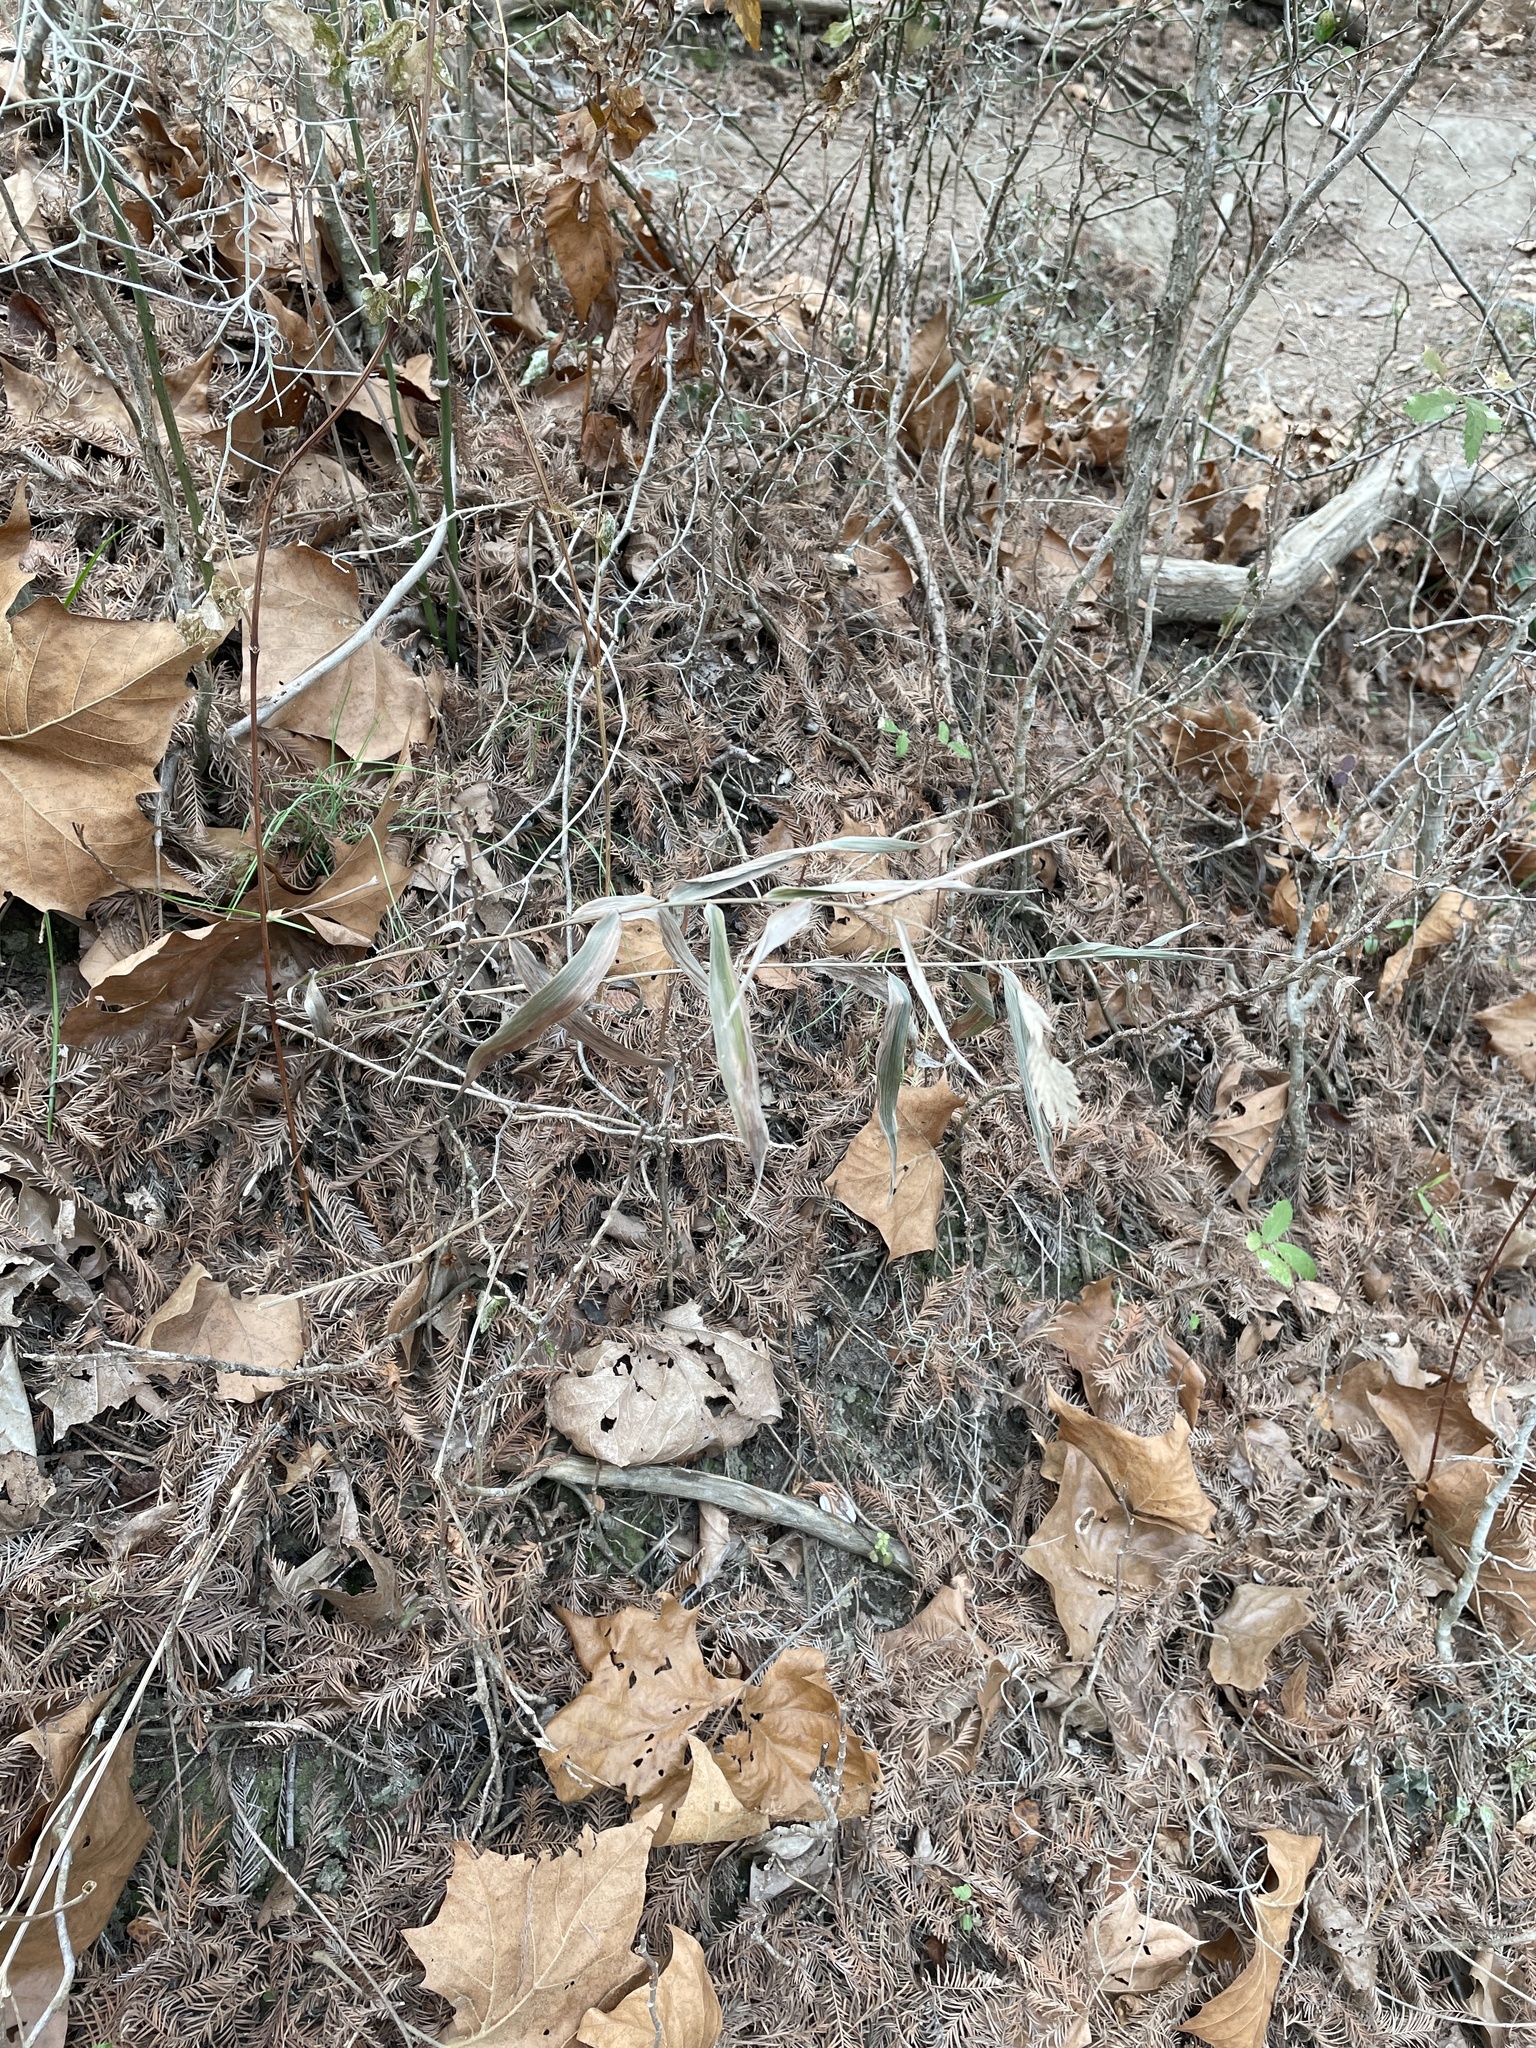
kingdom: Plantae
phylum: Tracheophyta
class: Liliopsida
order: Poales
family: Poaceae
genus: Chasmanthium
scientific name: Chasmanthium latifolium
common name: Broad-leaved chasmanthium
